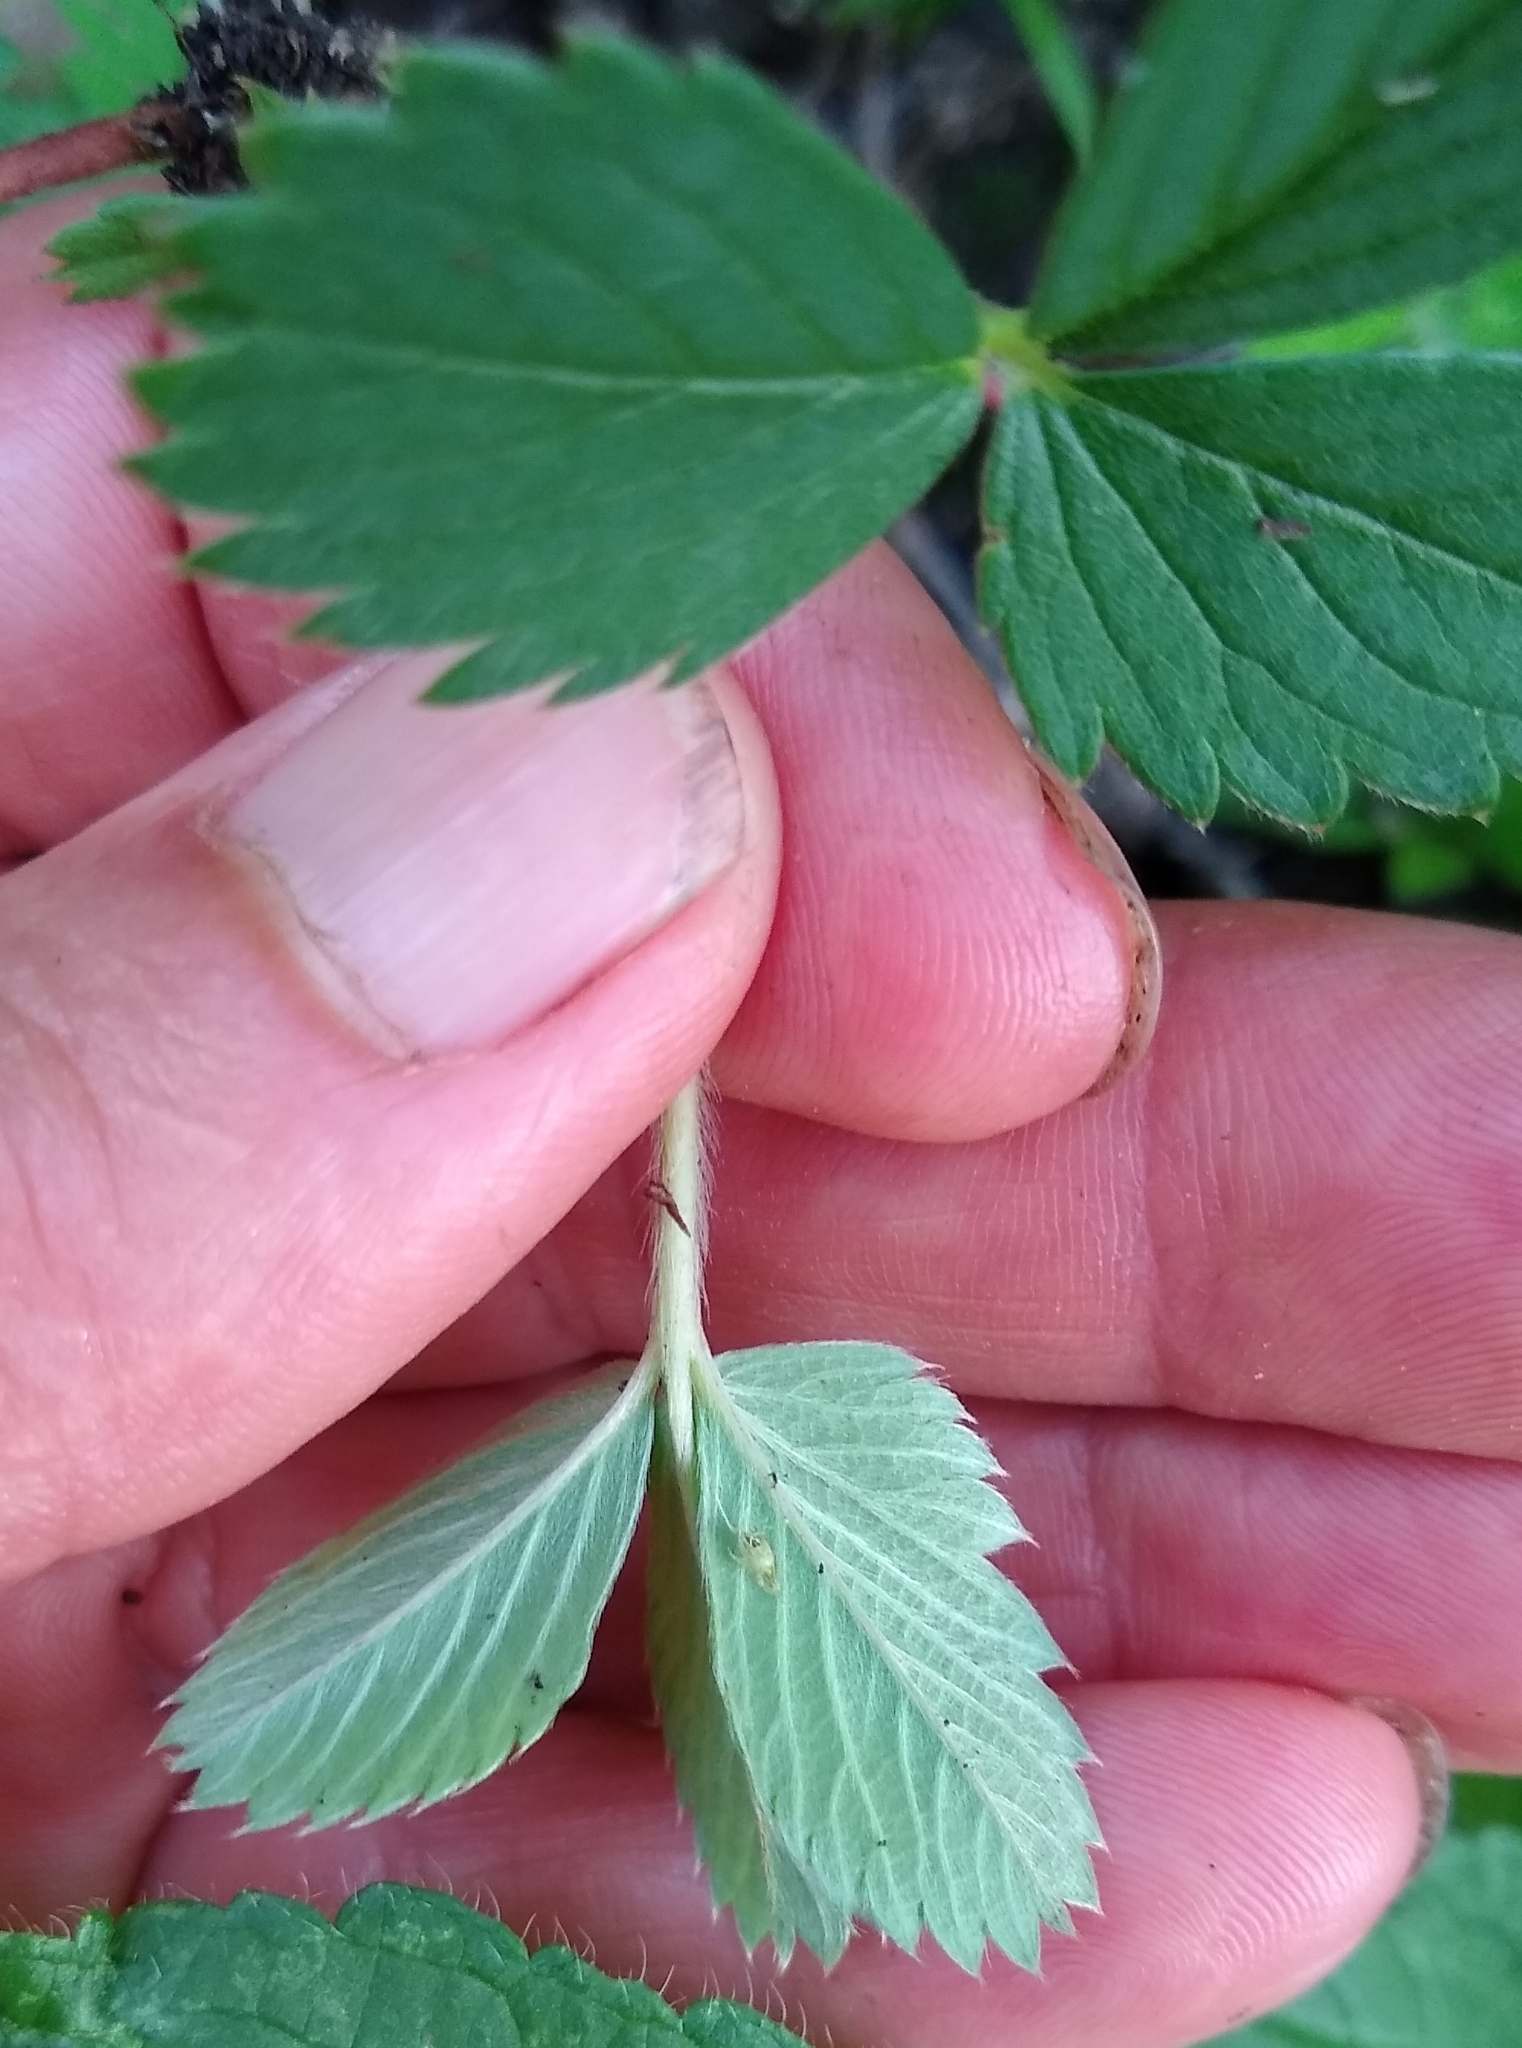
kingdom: Plantae
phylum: Tracheophyta
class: Magnoliopsida
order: Rosales
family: Rosaceae
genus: Fragaria
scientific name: Fragaria virginiana
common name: Thickleaved wild strawberry
